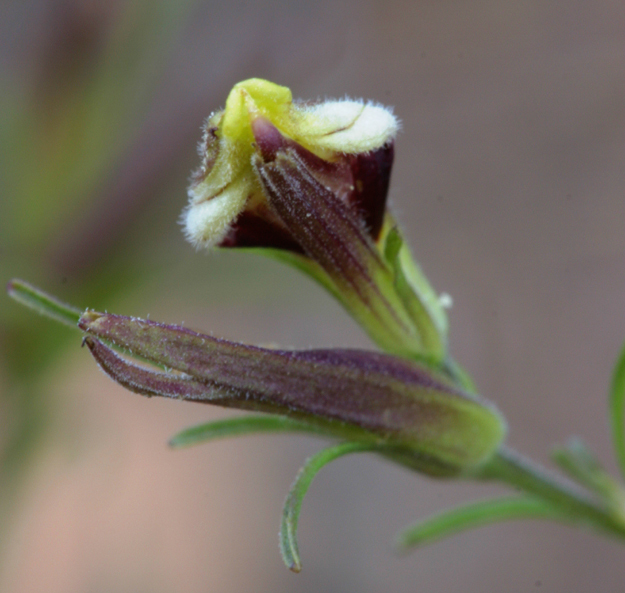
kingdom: Plantae
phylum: Tracheophyta
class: Magnoliopsida
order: Lamiales
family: Orobanchaceae
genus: Cordylanthus
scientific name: Cordylanthus tenuis
